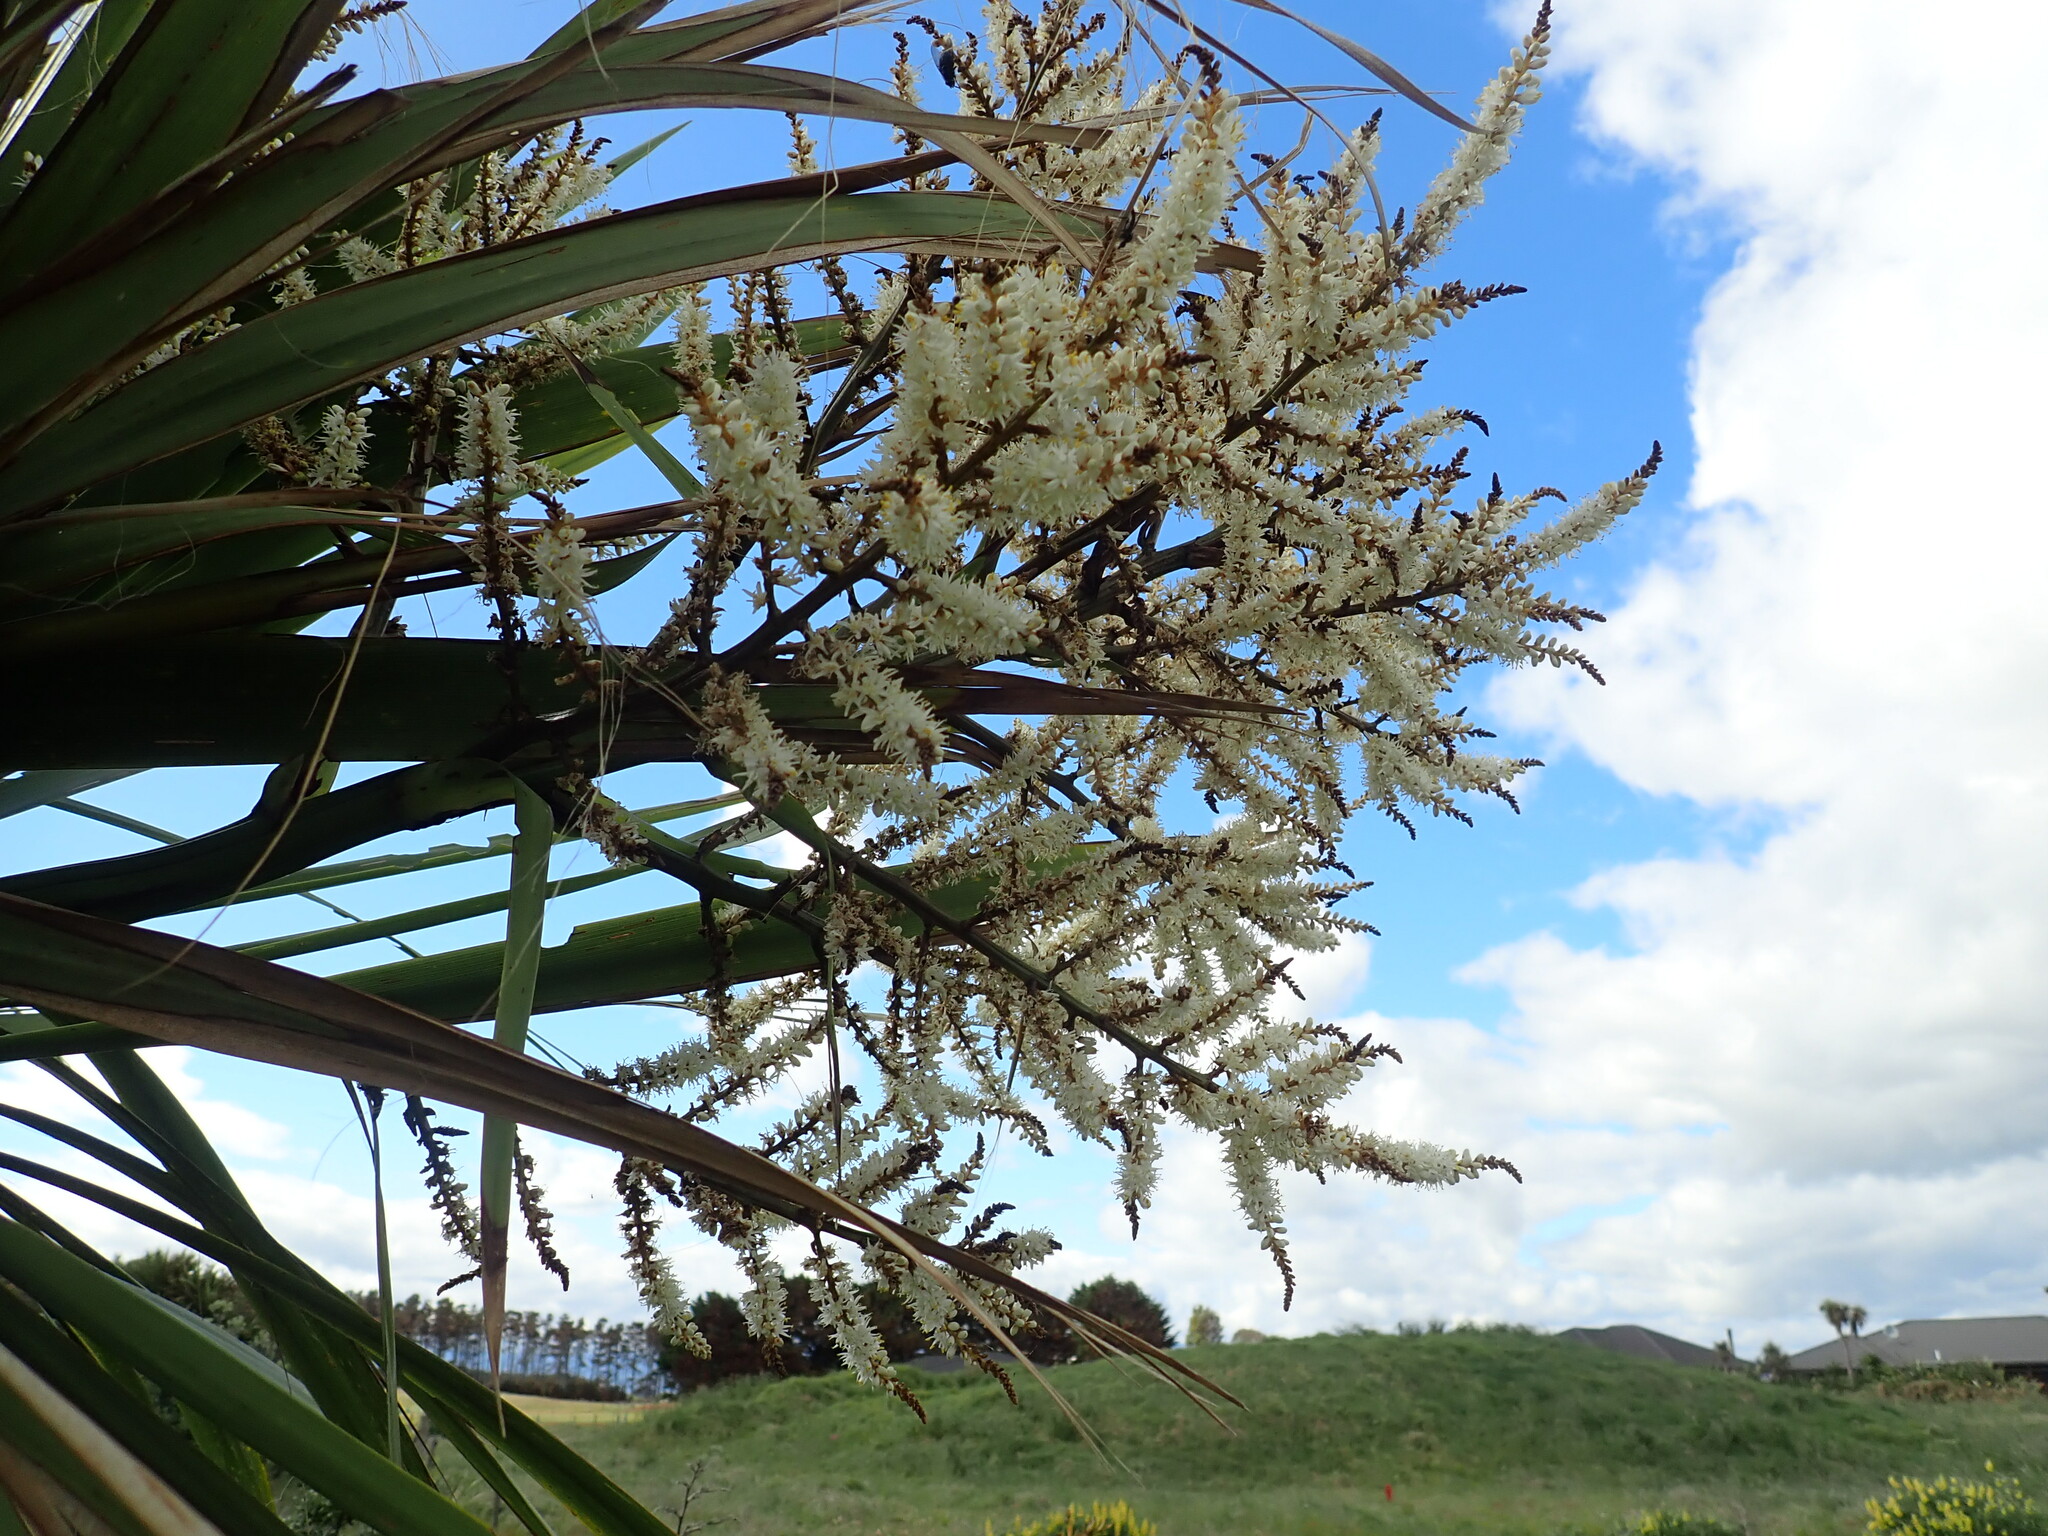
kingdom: Plantae
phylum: Tracheophyta
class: Liliopsida
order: Asparagales
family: Asparagaceae
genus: Cordyline
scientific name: Cordyline australis
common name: Cabbage-palm
